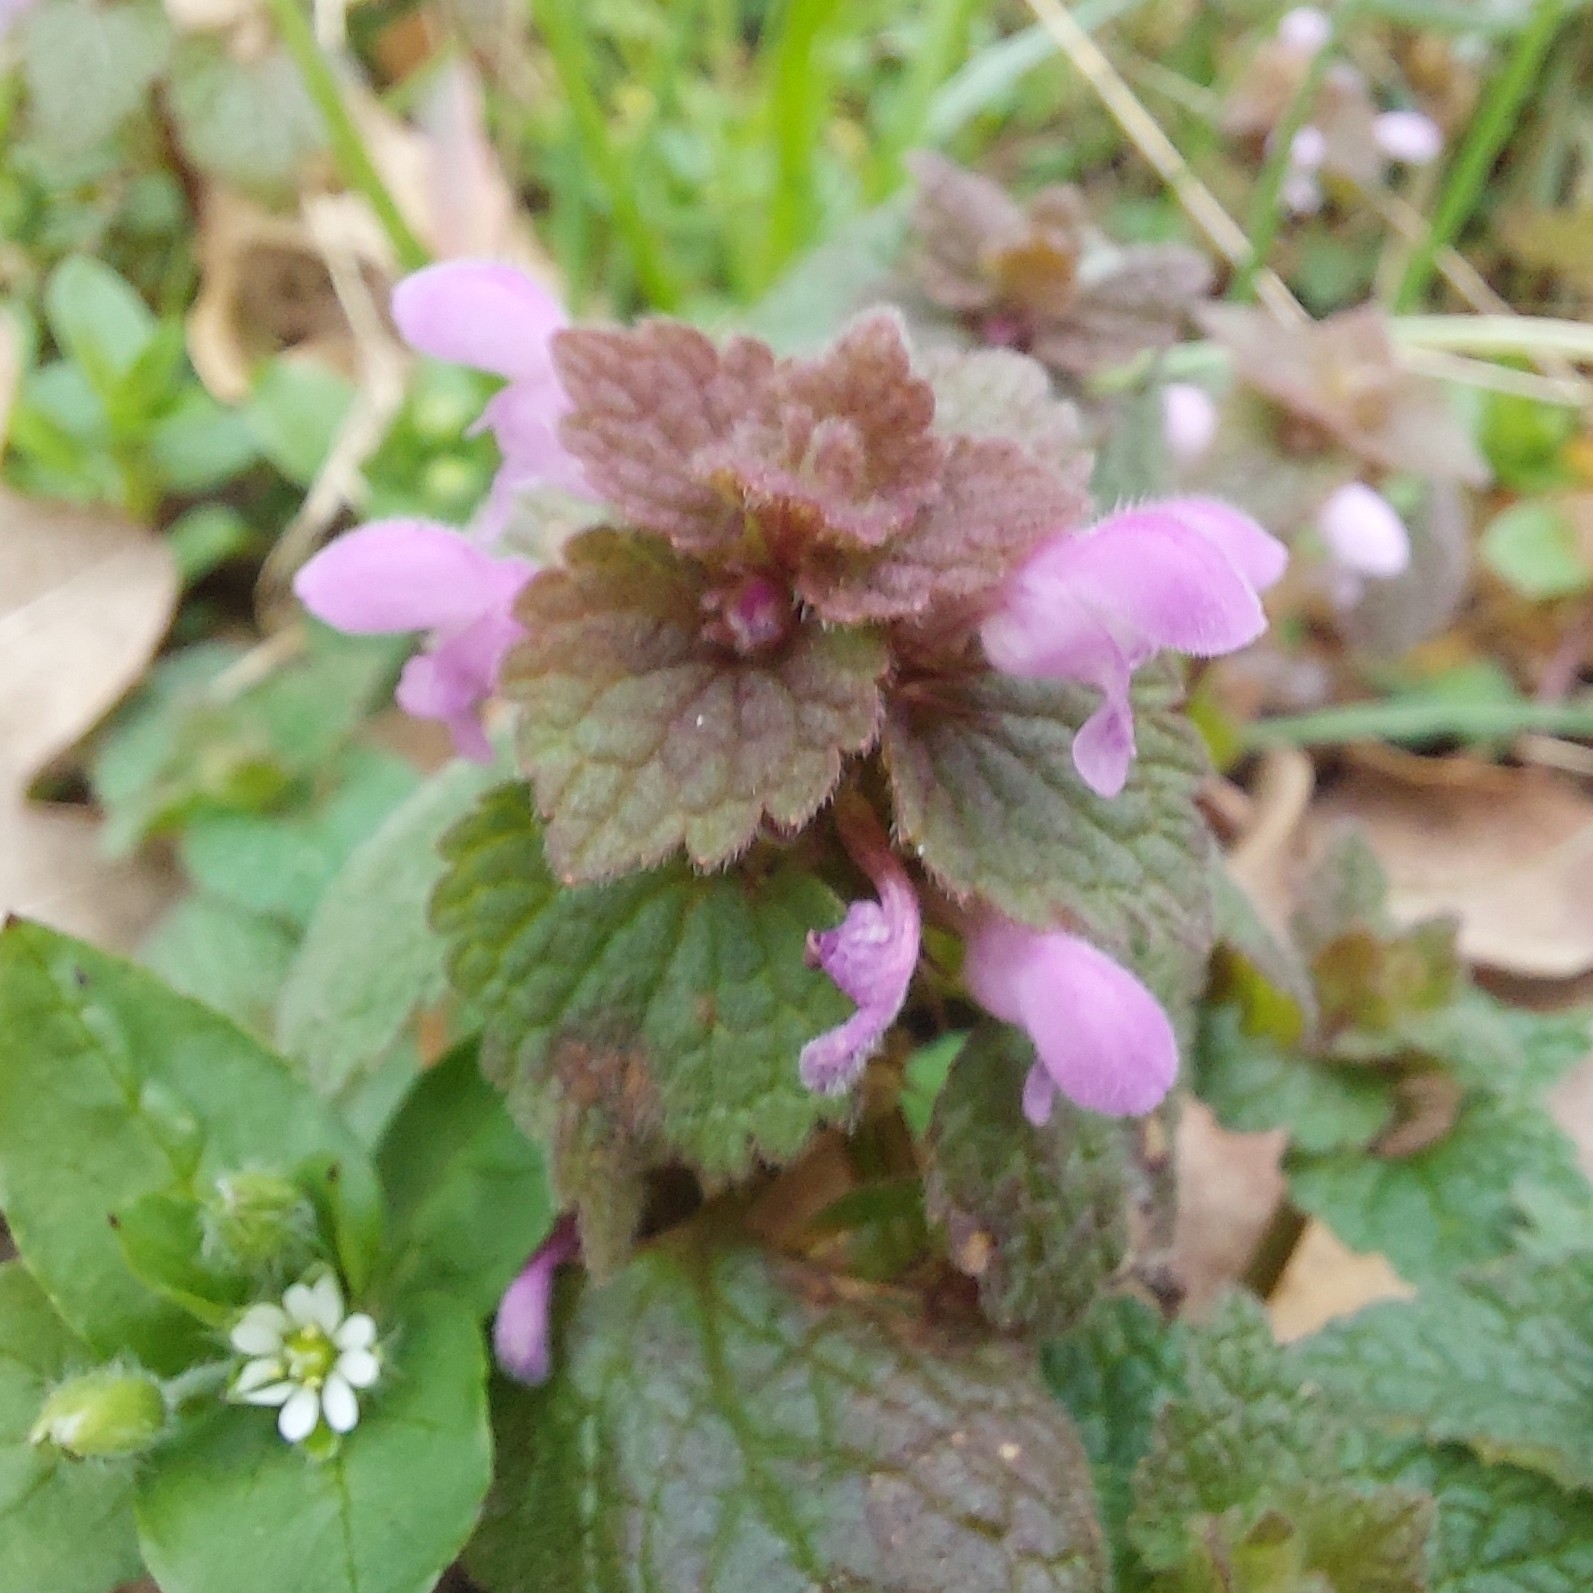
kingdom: Plantae
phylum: Tracheophyta
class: Magnoliopsida
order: Lamiales
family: Lamiaceae
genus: Lamium
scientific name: Lamium purpureum
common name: Red dead-nettle
